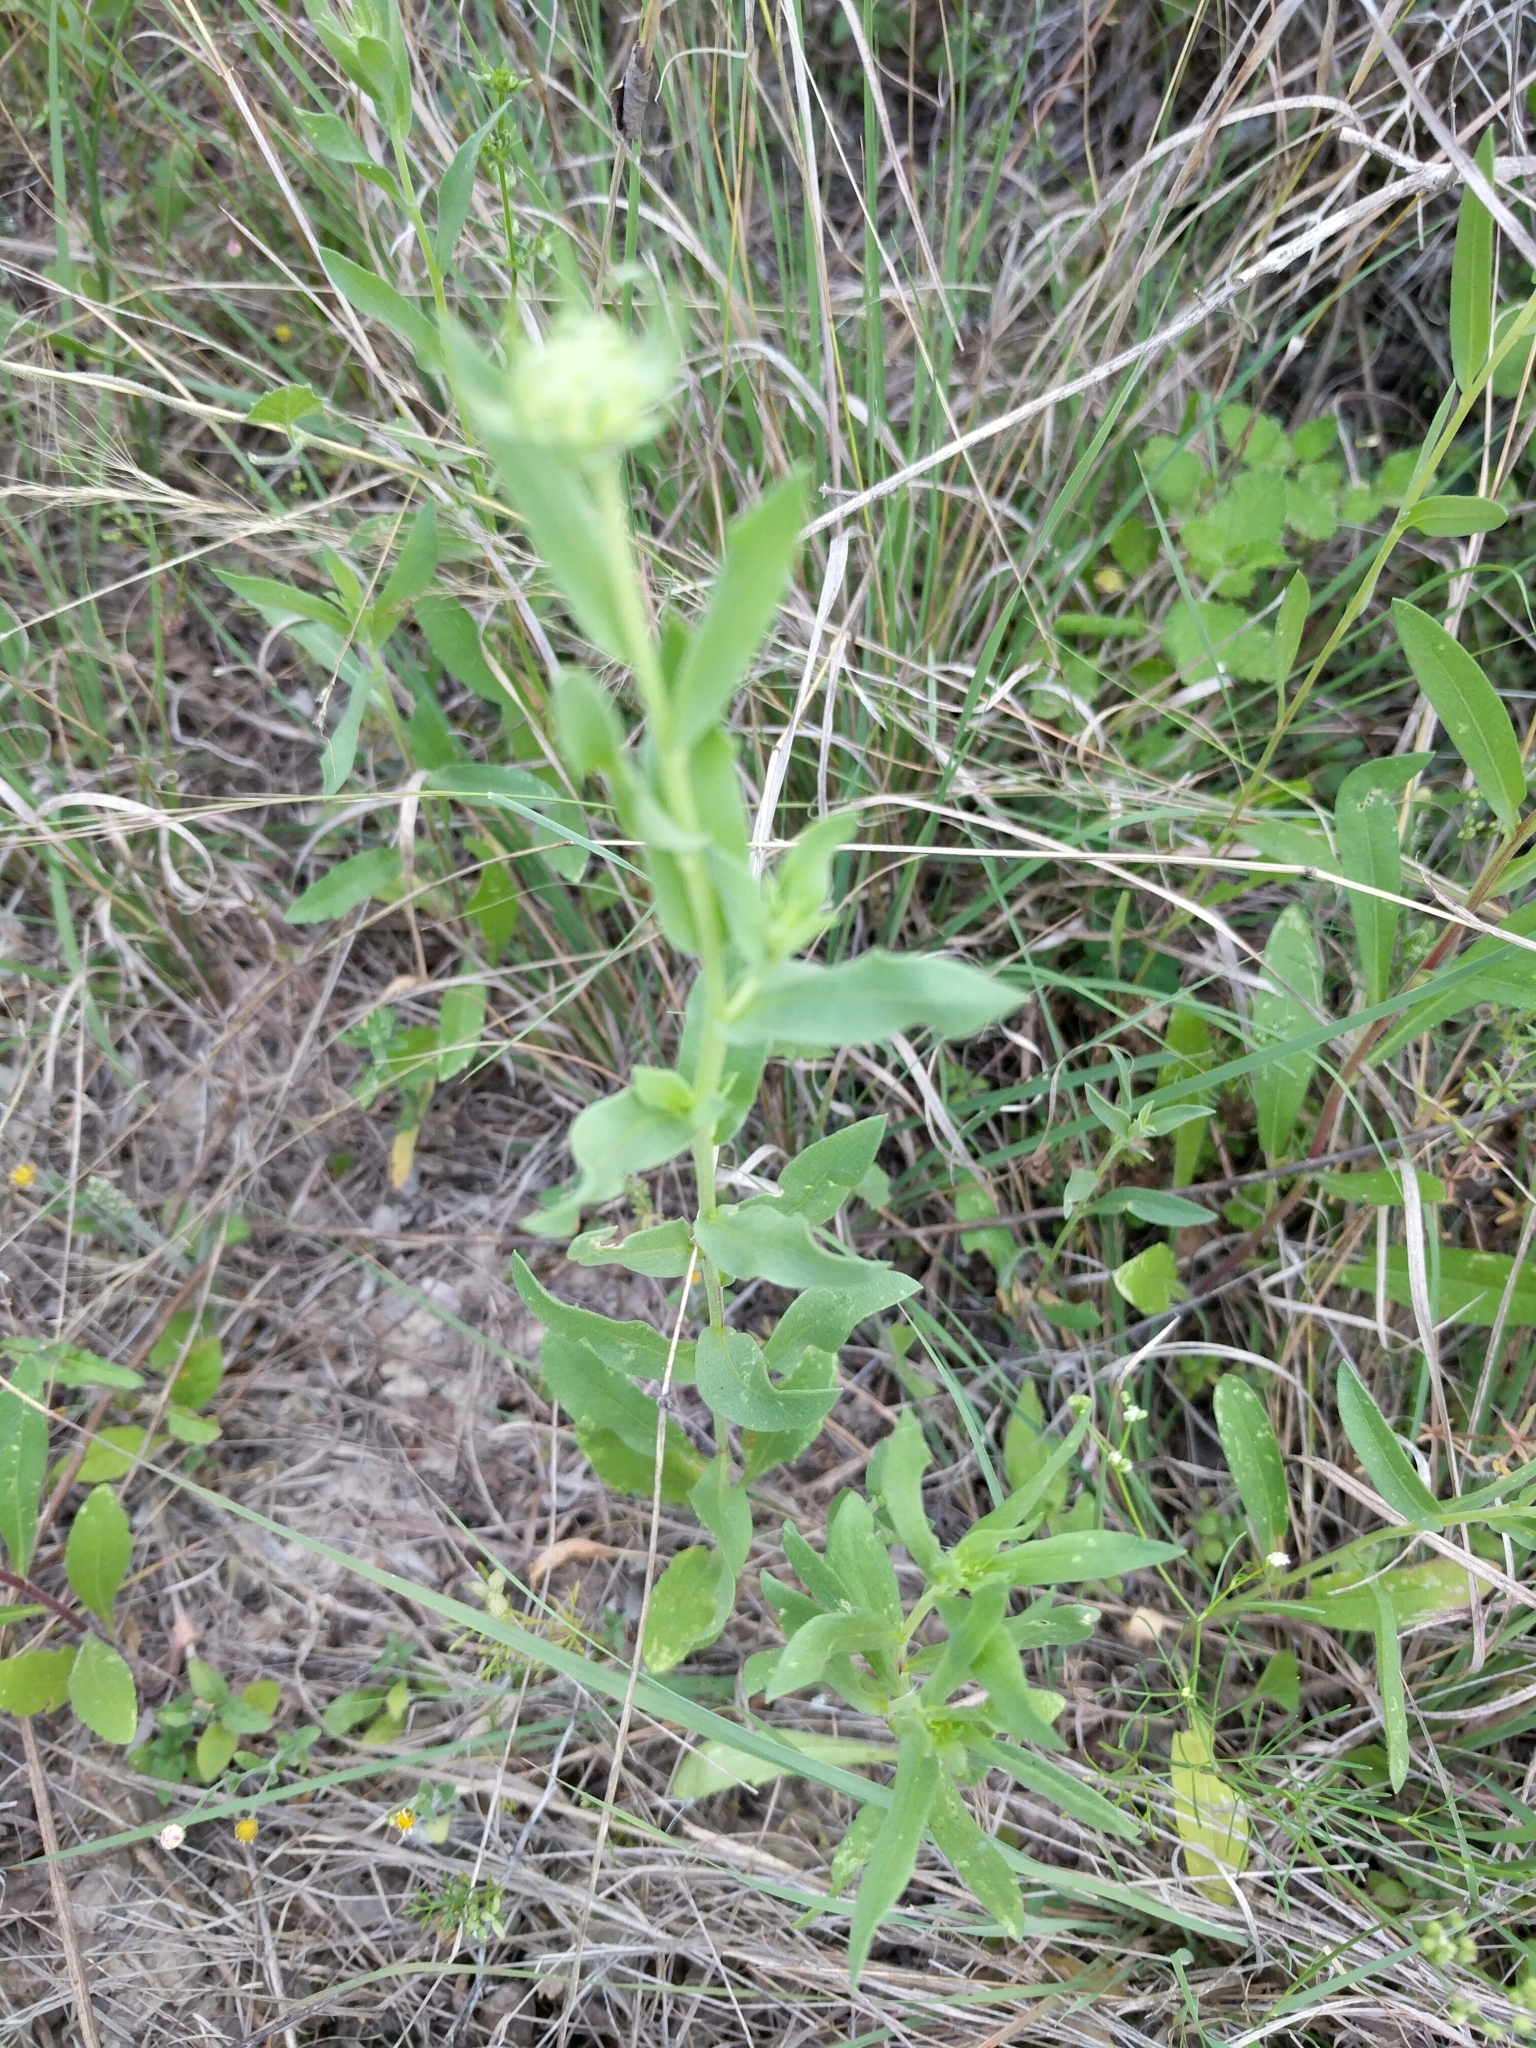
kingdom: Plantae
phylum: Tracheophyta
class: Magnoliopsida
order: Asterales
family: Asteraceae
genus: Gaillardia
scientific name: Gaillardia coahuilensis
